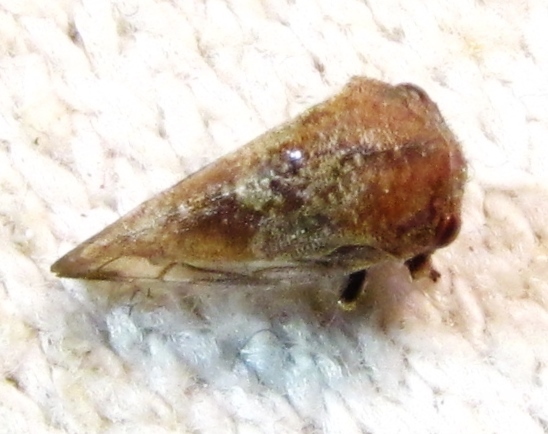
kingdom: Animalia
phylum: Arthropoda
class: Insecta
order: Hemiptera
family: Membracidae
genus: Ophiderma
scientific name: Ophiderma pubescens
